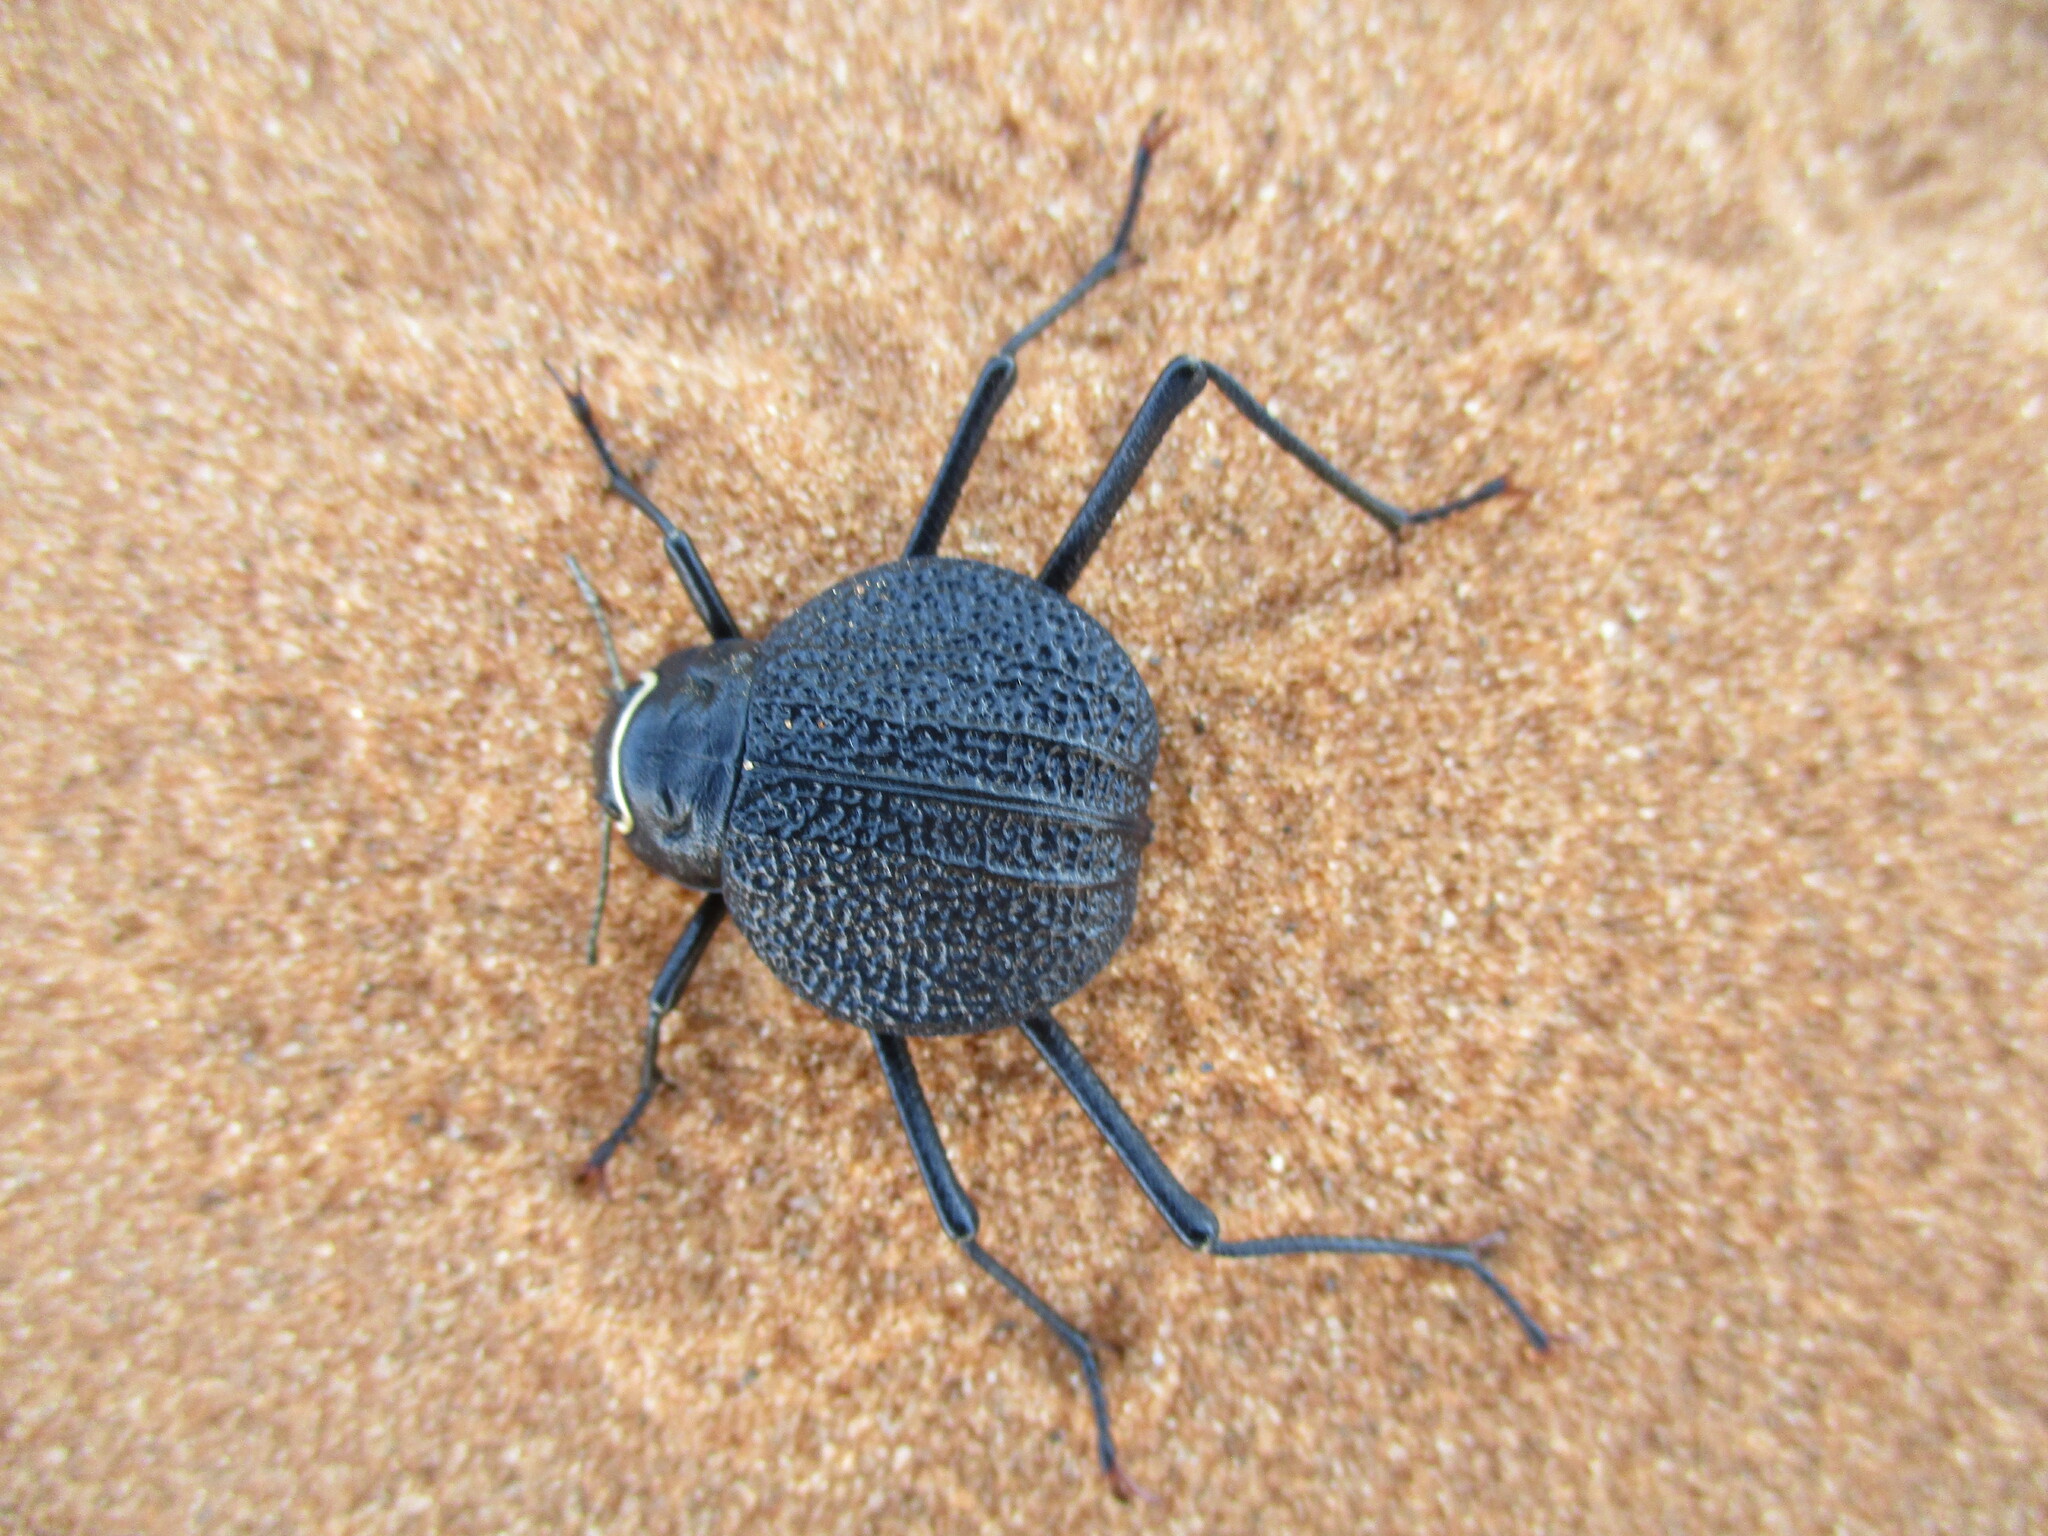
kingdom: Animalia
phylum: Arthropoda
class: Insecta
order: Coleoptera
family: Tenebrionidae
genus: Onymacris
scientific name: Onymacris
